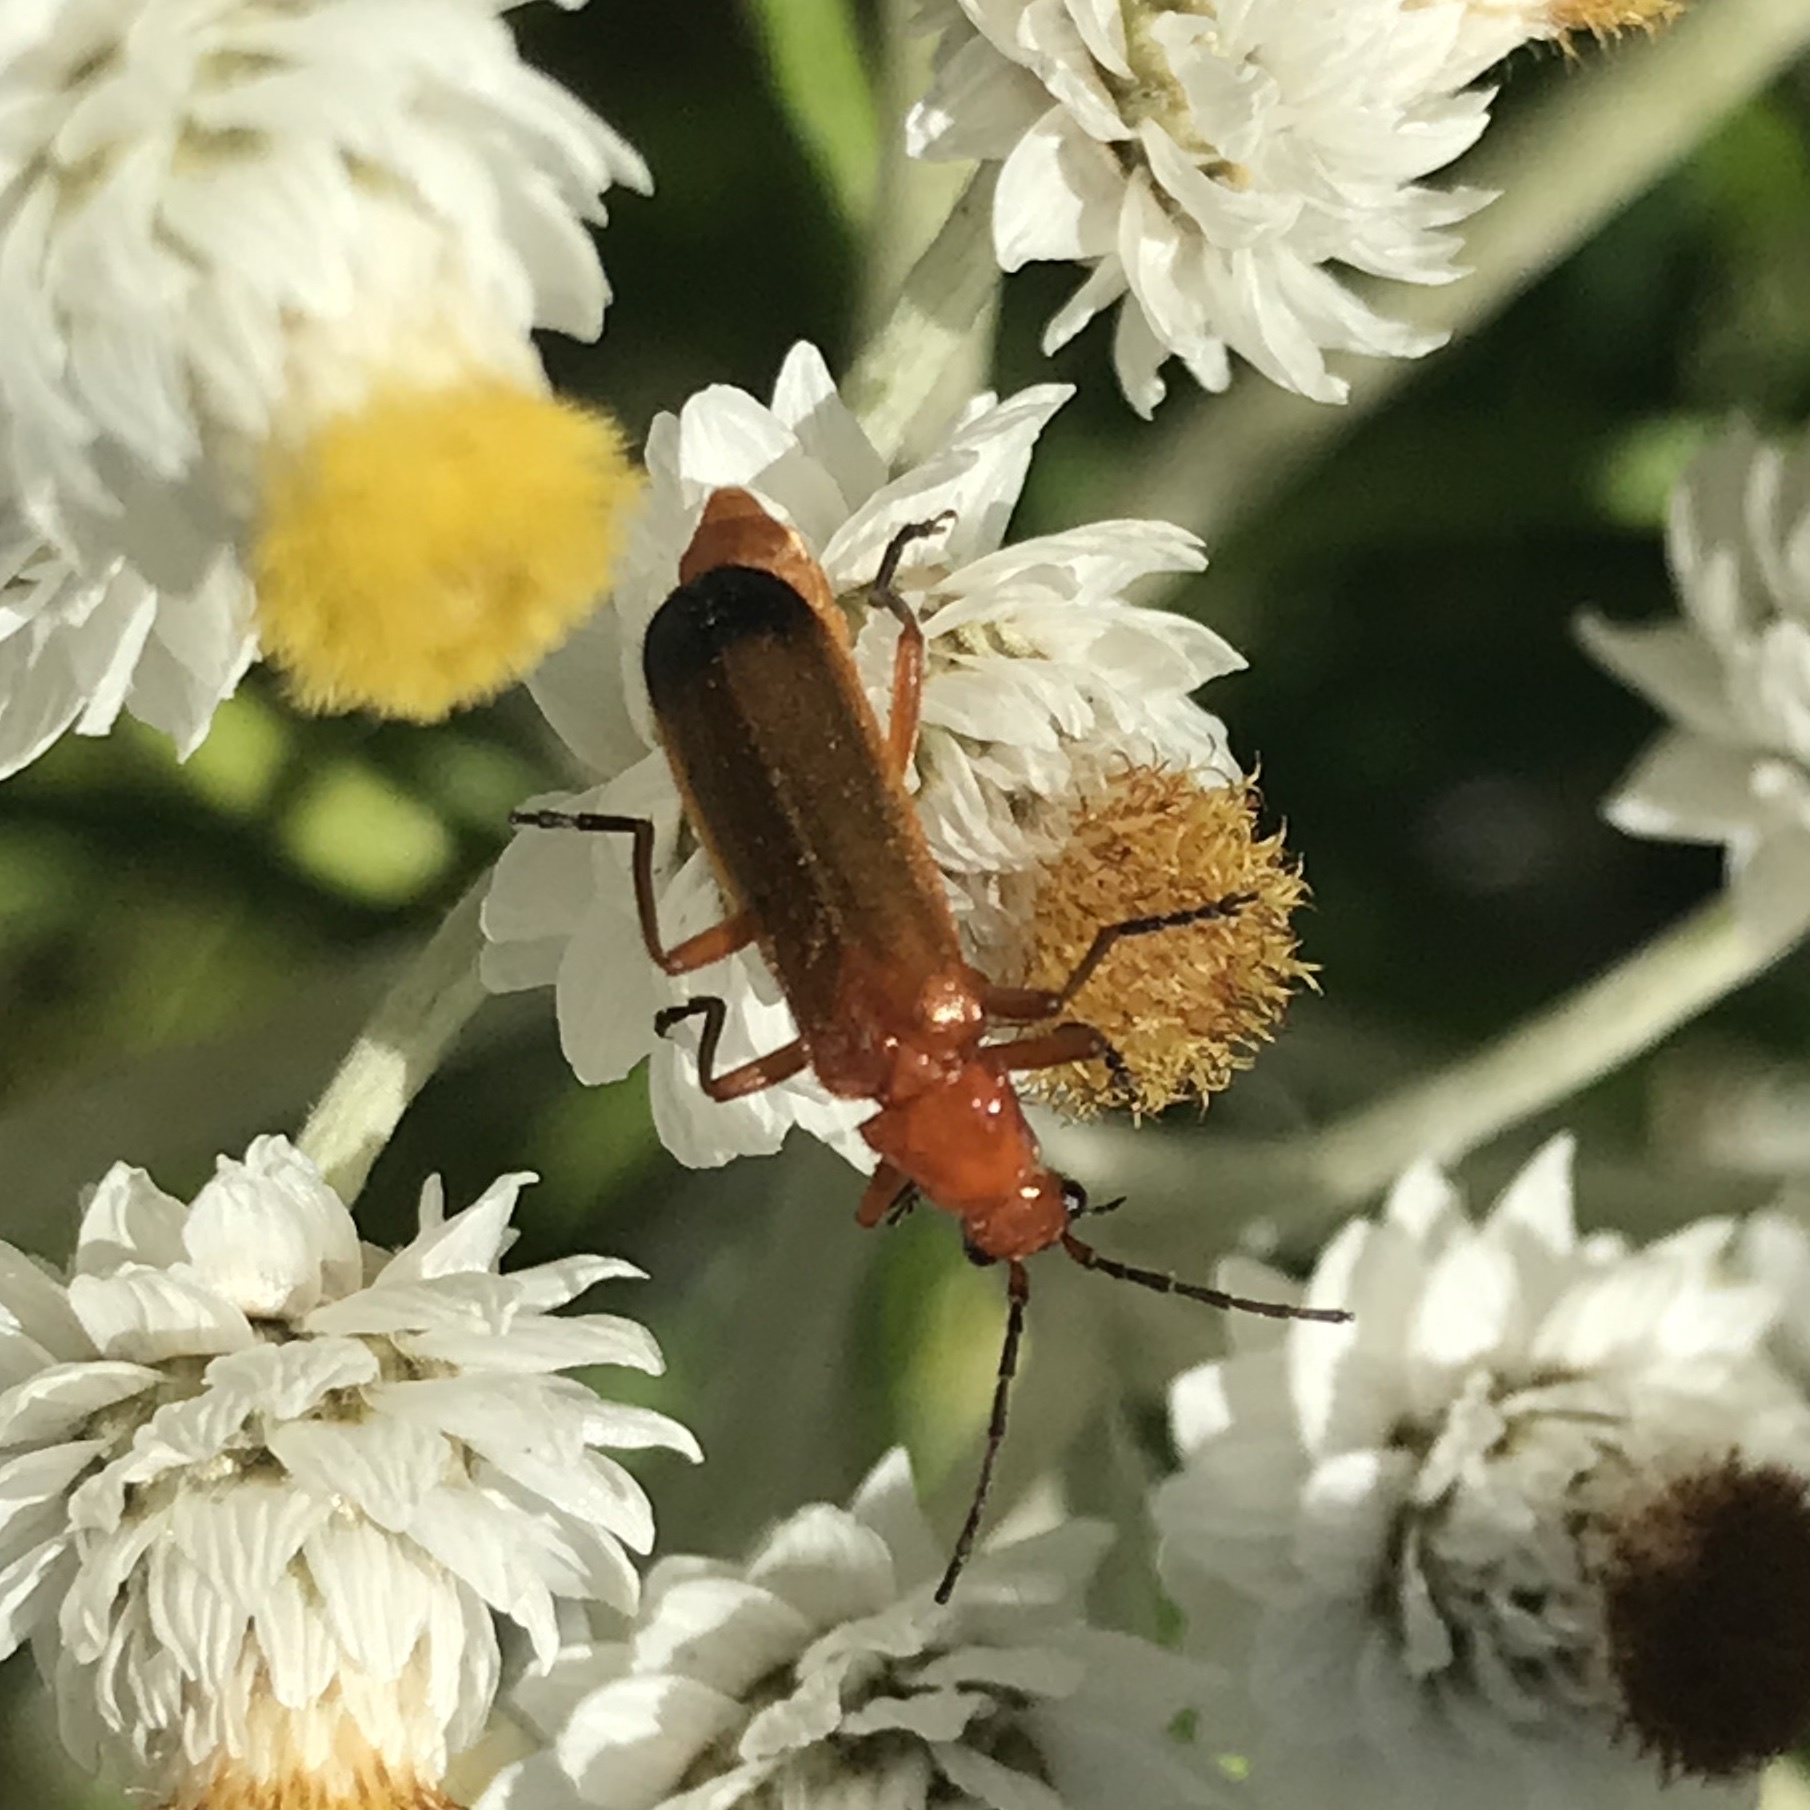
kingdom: Animalia
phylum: Arthropoda
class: Insecta
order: Coleoptera
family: Cantharidae
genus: Rhagonycha
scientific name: Rhagonycha fulva
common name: Common red soldier beetle
